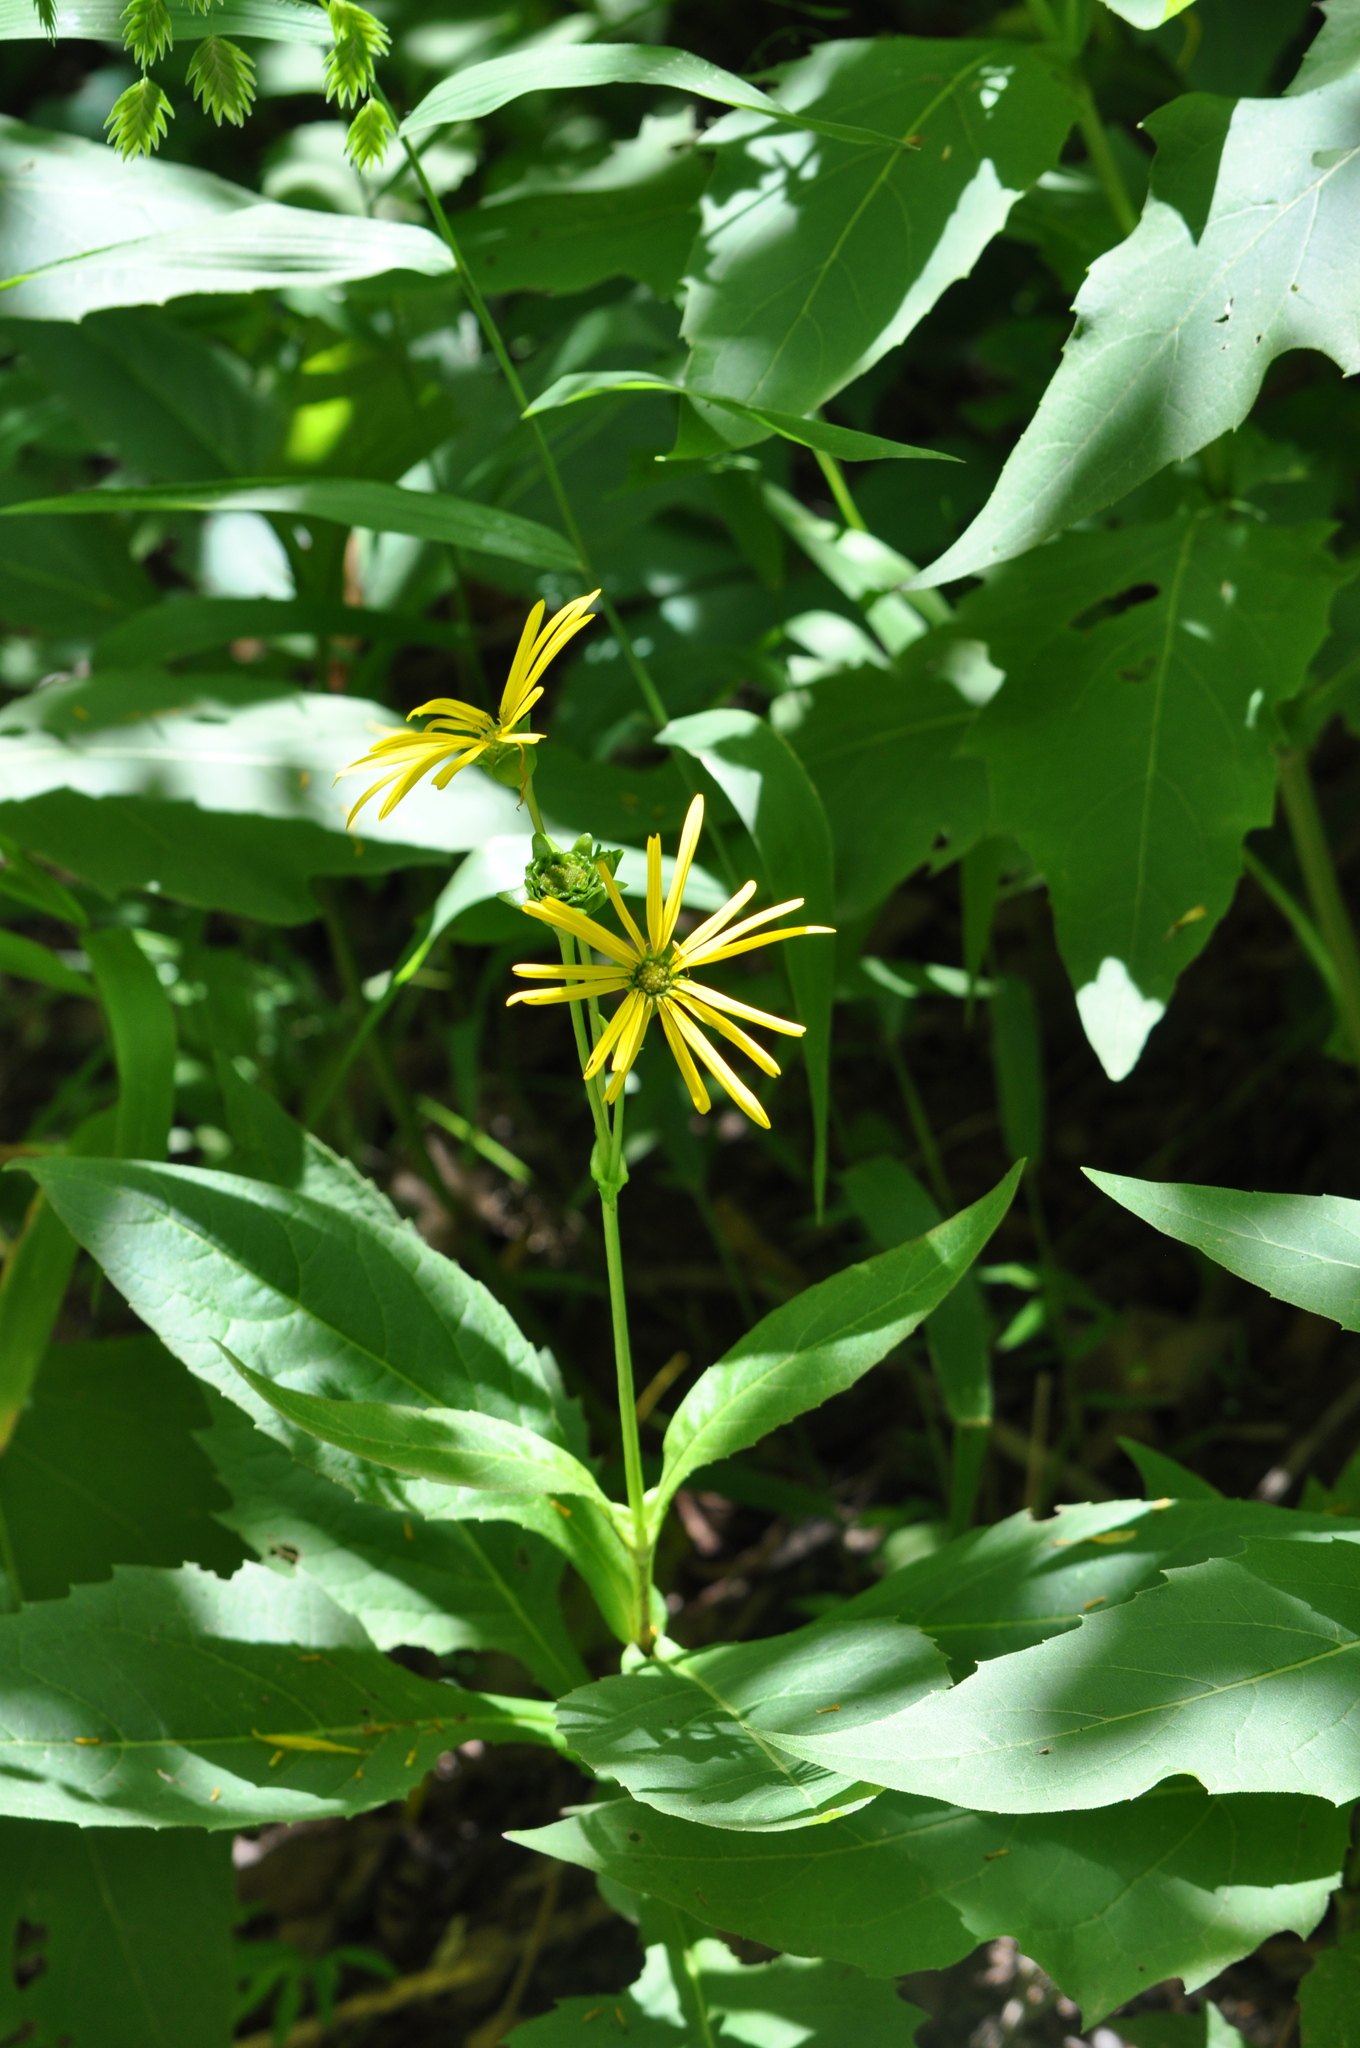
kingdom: Plantae
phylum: Tracheophyta
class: Magnoliopsida
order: Asterales
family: Asteraceae
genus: Silphium
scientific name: Silphium perfoliatum
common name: Cup-plant
